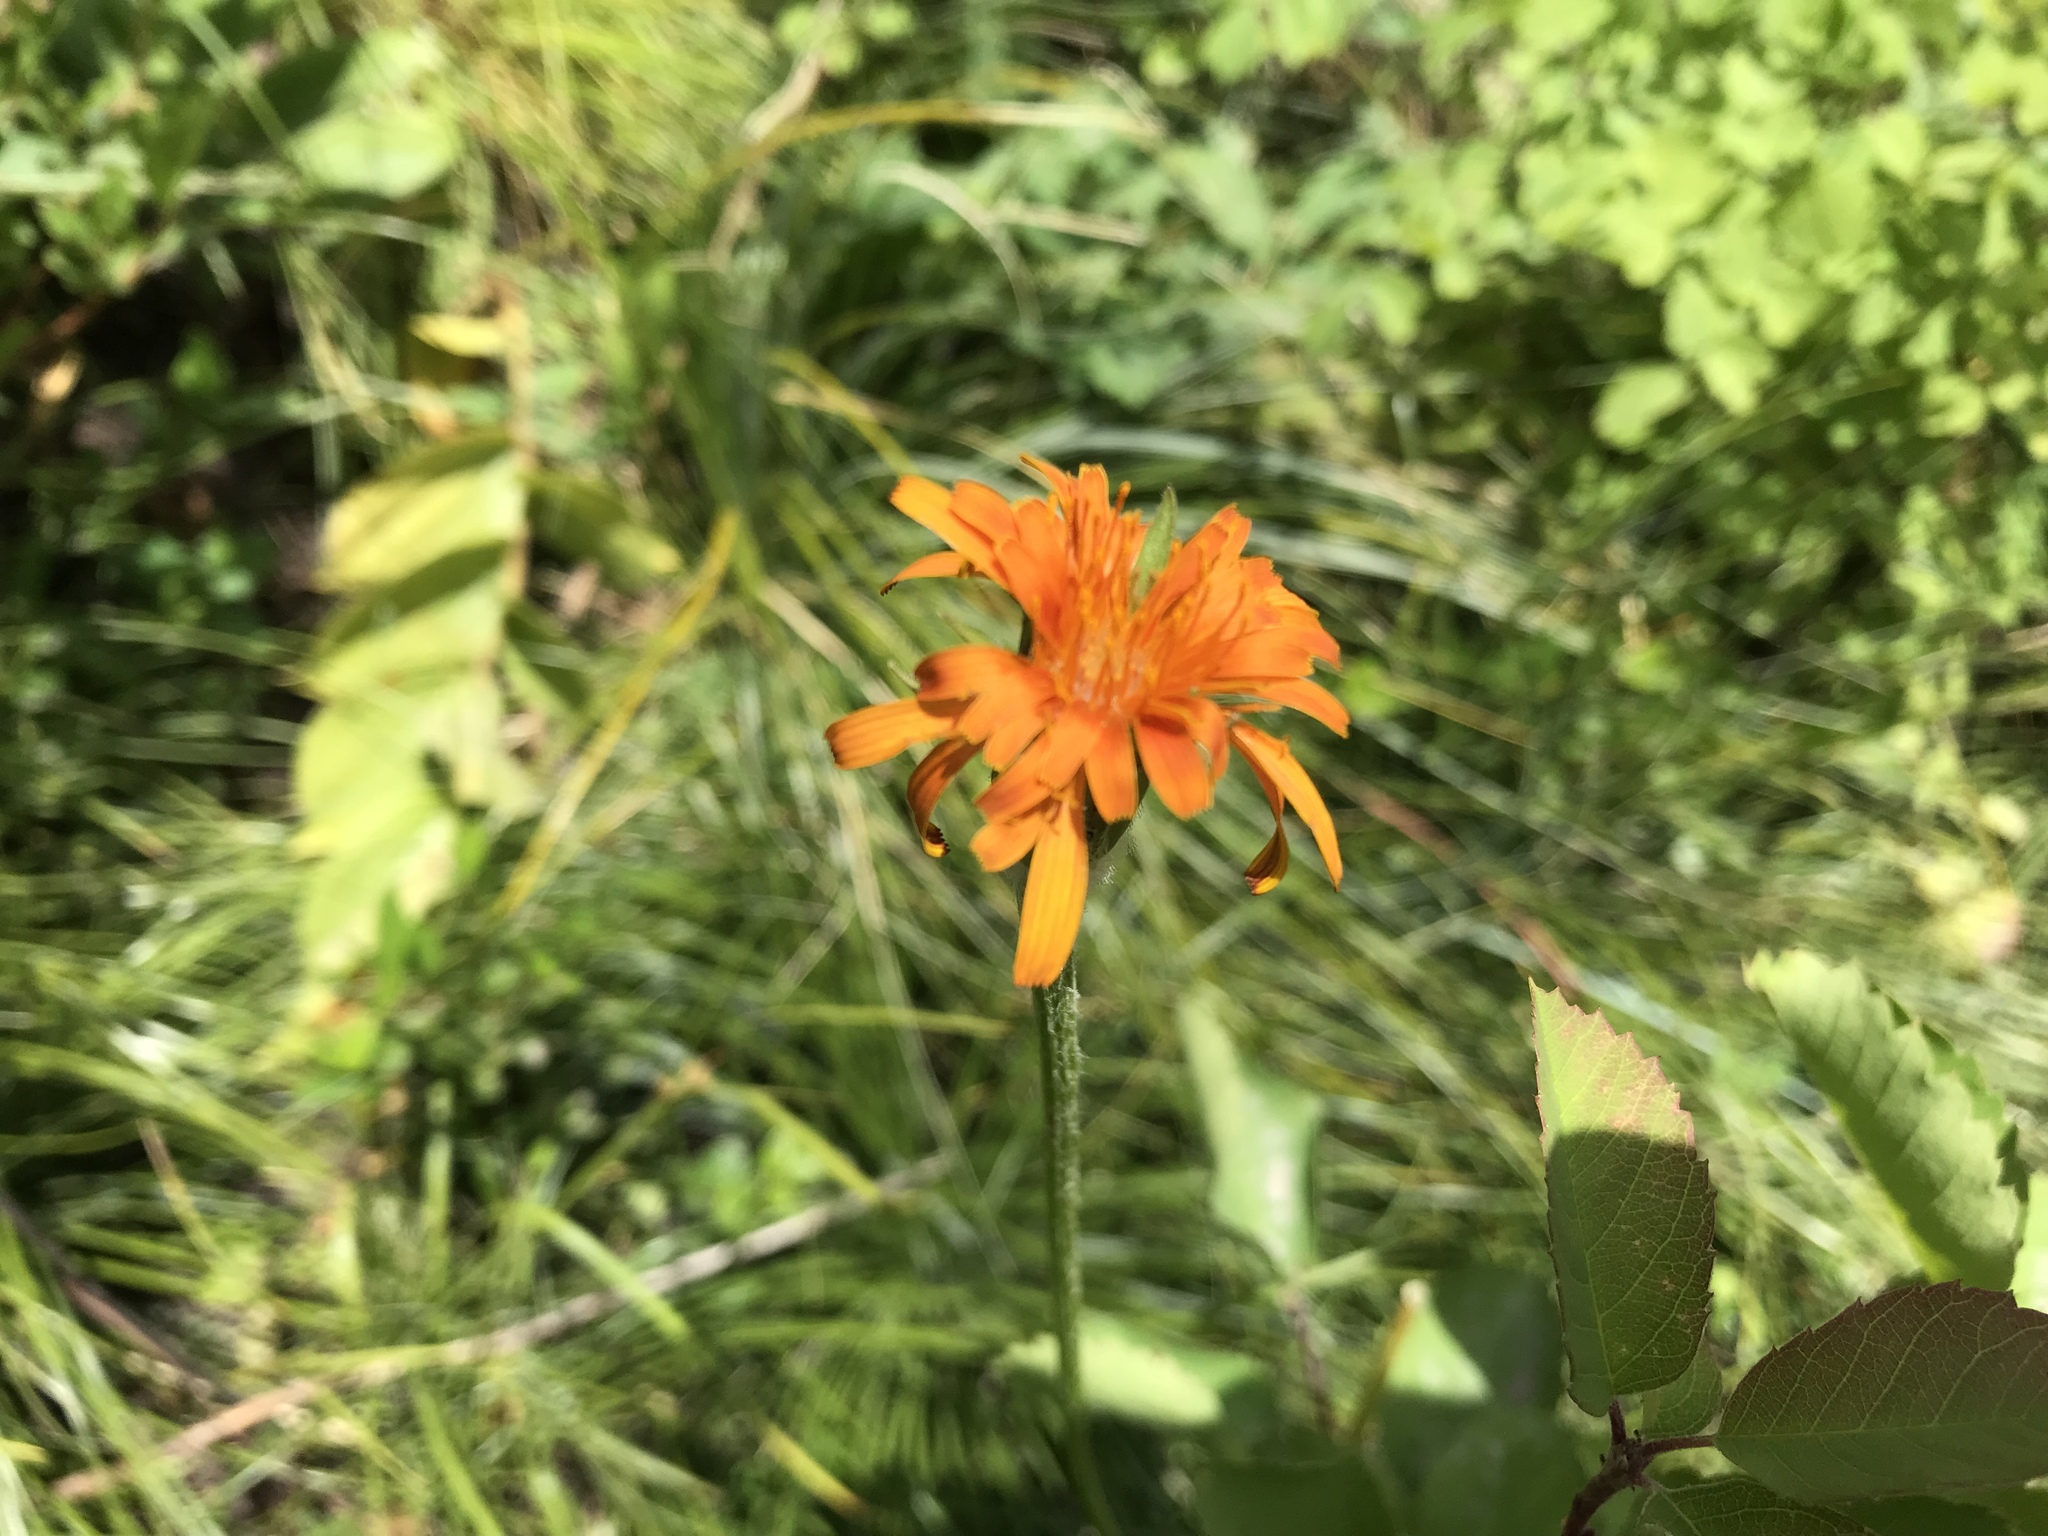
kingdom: Plantae
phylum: Tracheophyta
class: Magnoliopsida
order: Asterales
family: Asteraceae
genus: Agoseris
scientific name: Agoseris aurantiaca
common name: Mountain agoseris
